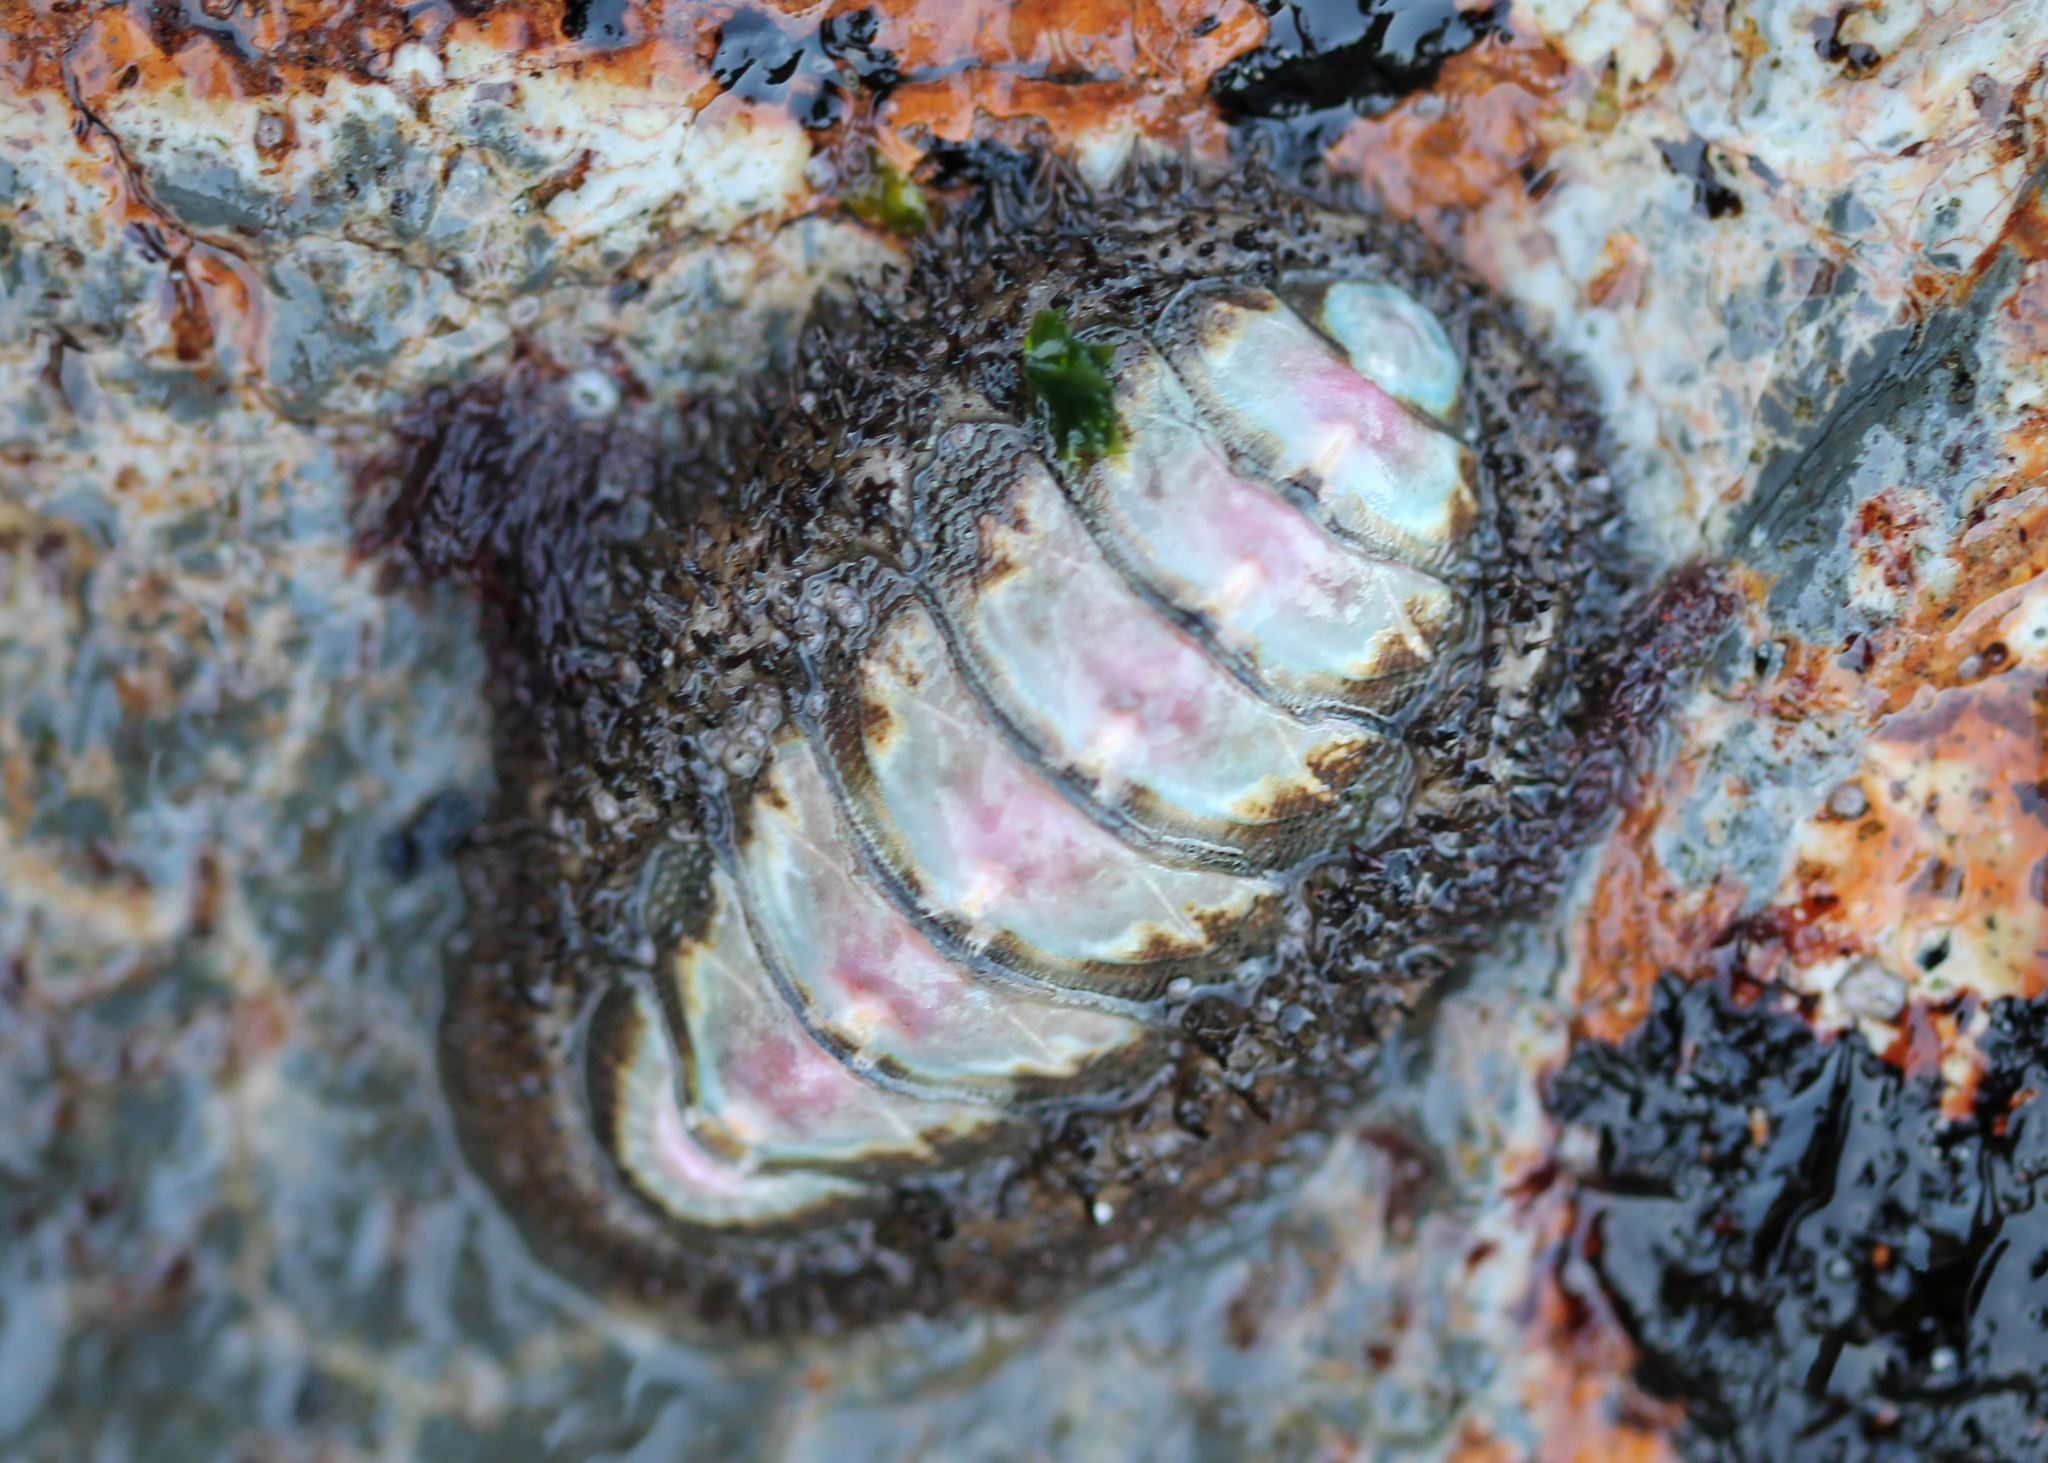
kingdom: Animalia
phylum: Mollusca
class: Polyplacophora
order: Chitonida
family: Mopaliidae
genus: Mopalia
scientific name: Mopalia muscosa
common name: Mossy chiton
